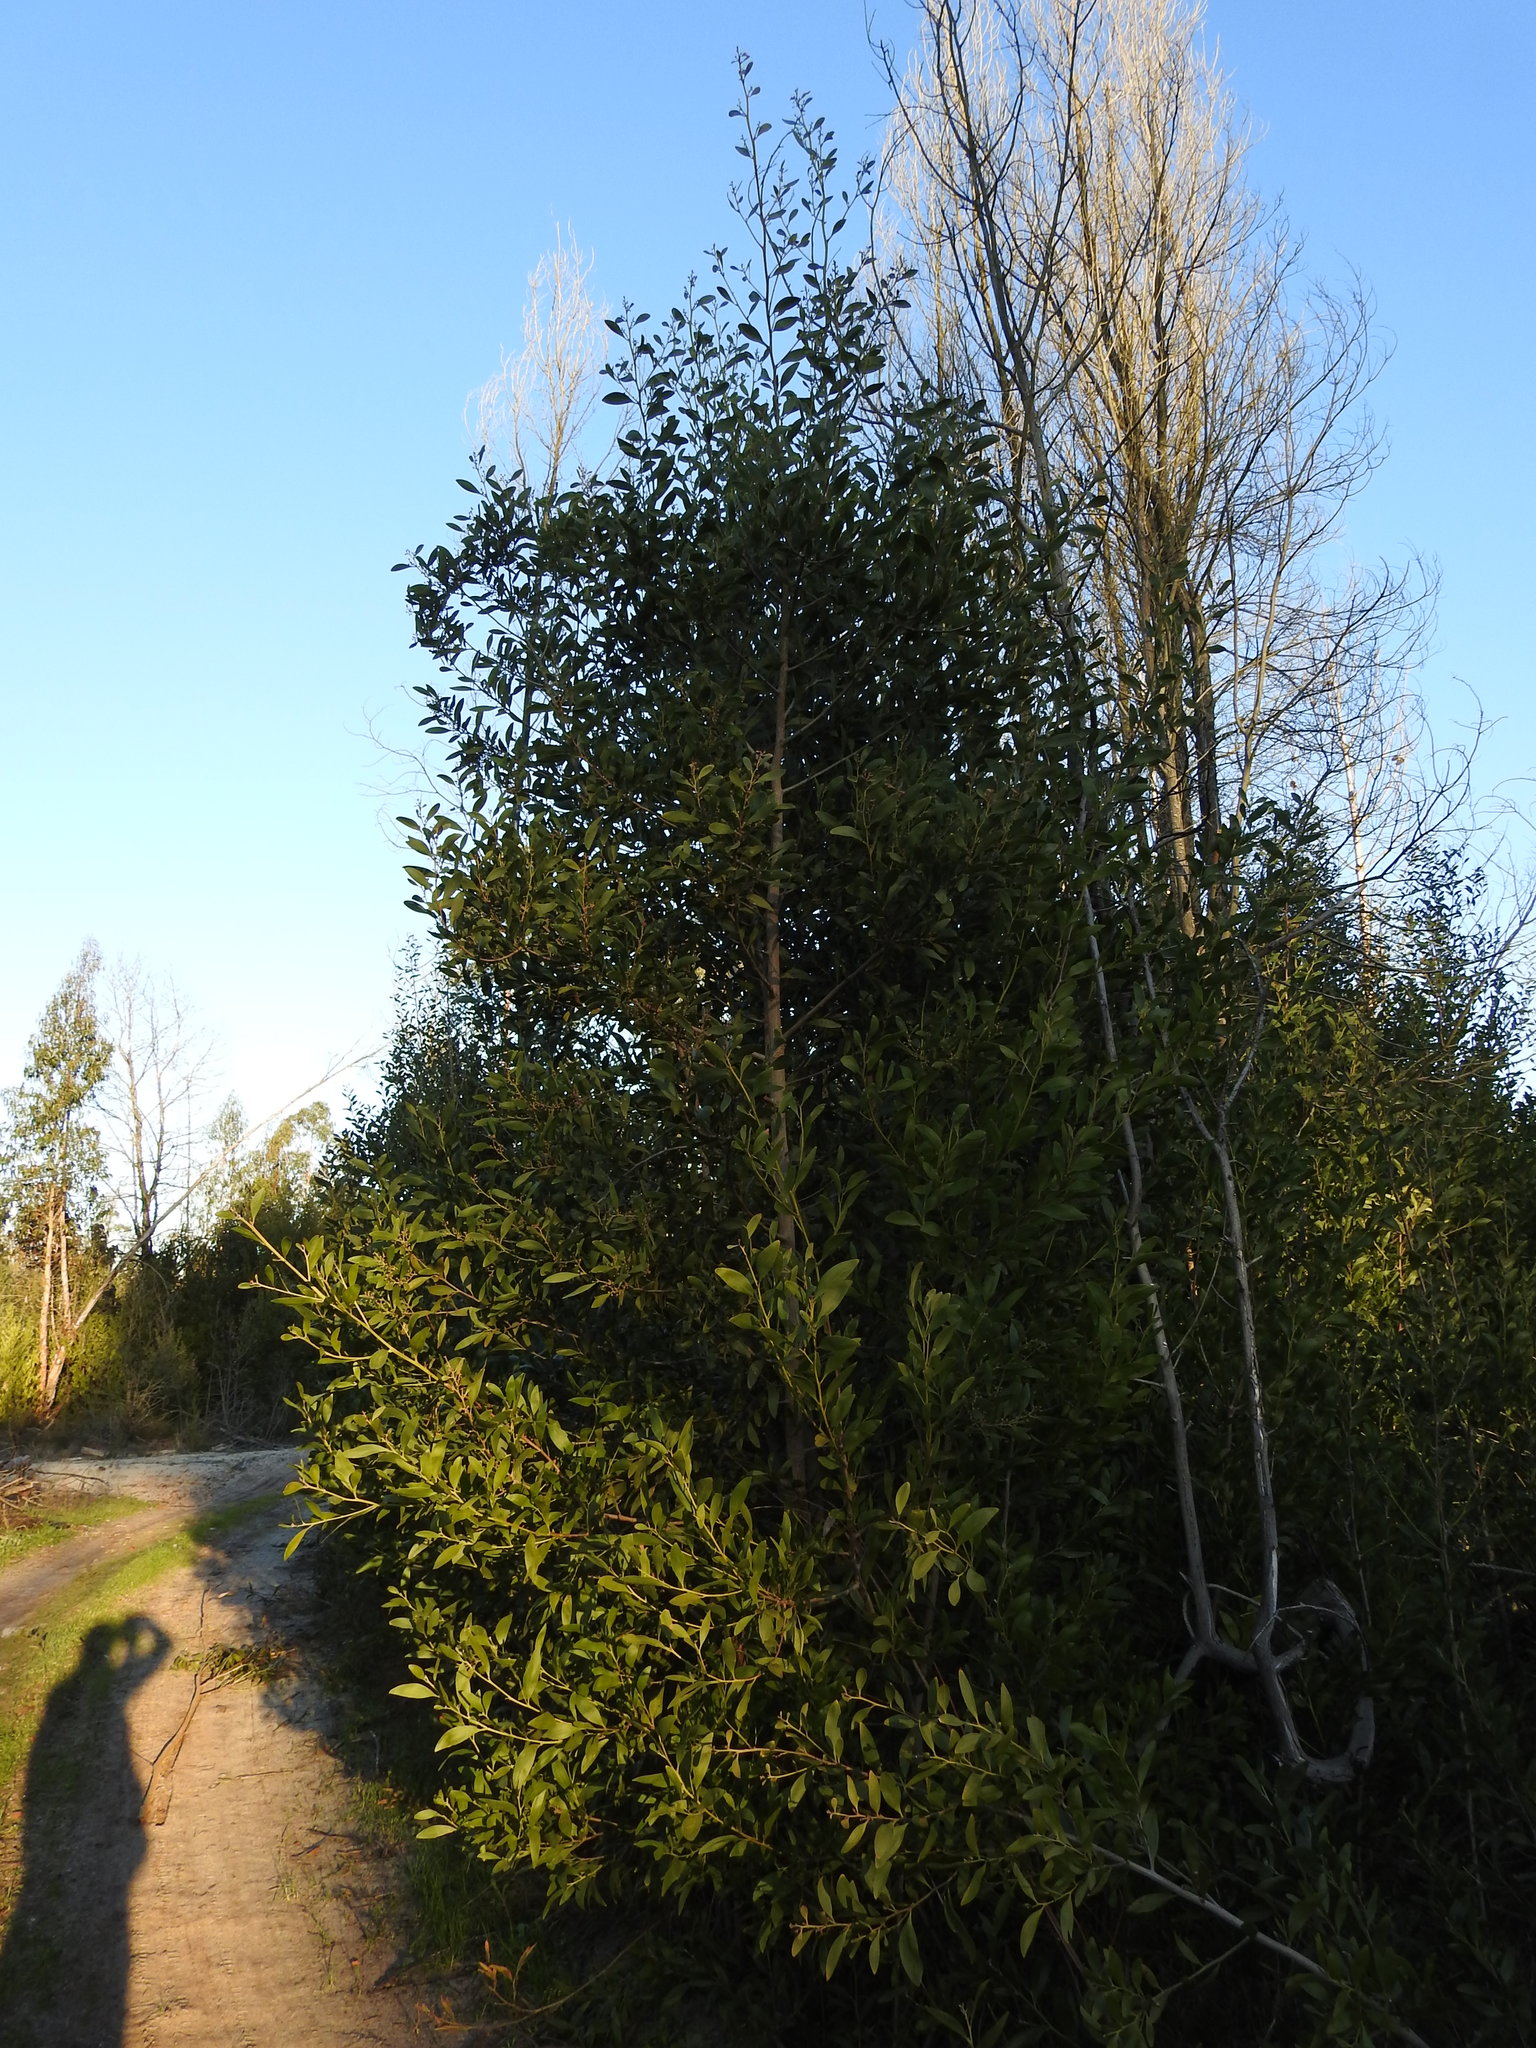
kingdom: Plantae
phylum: Tracheophyta
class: Magnoliopsida
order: Fabales
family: Fabaceae
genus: Acacia
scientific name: Acacia melanoxylon
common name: Blackwood
